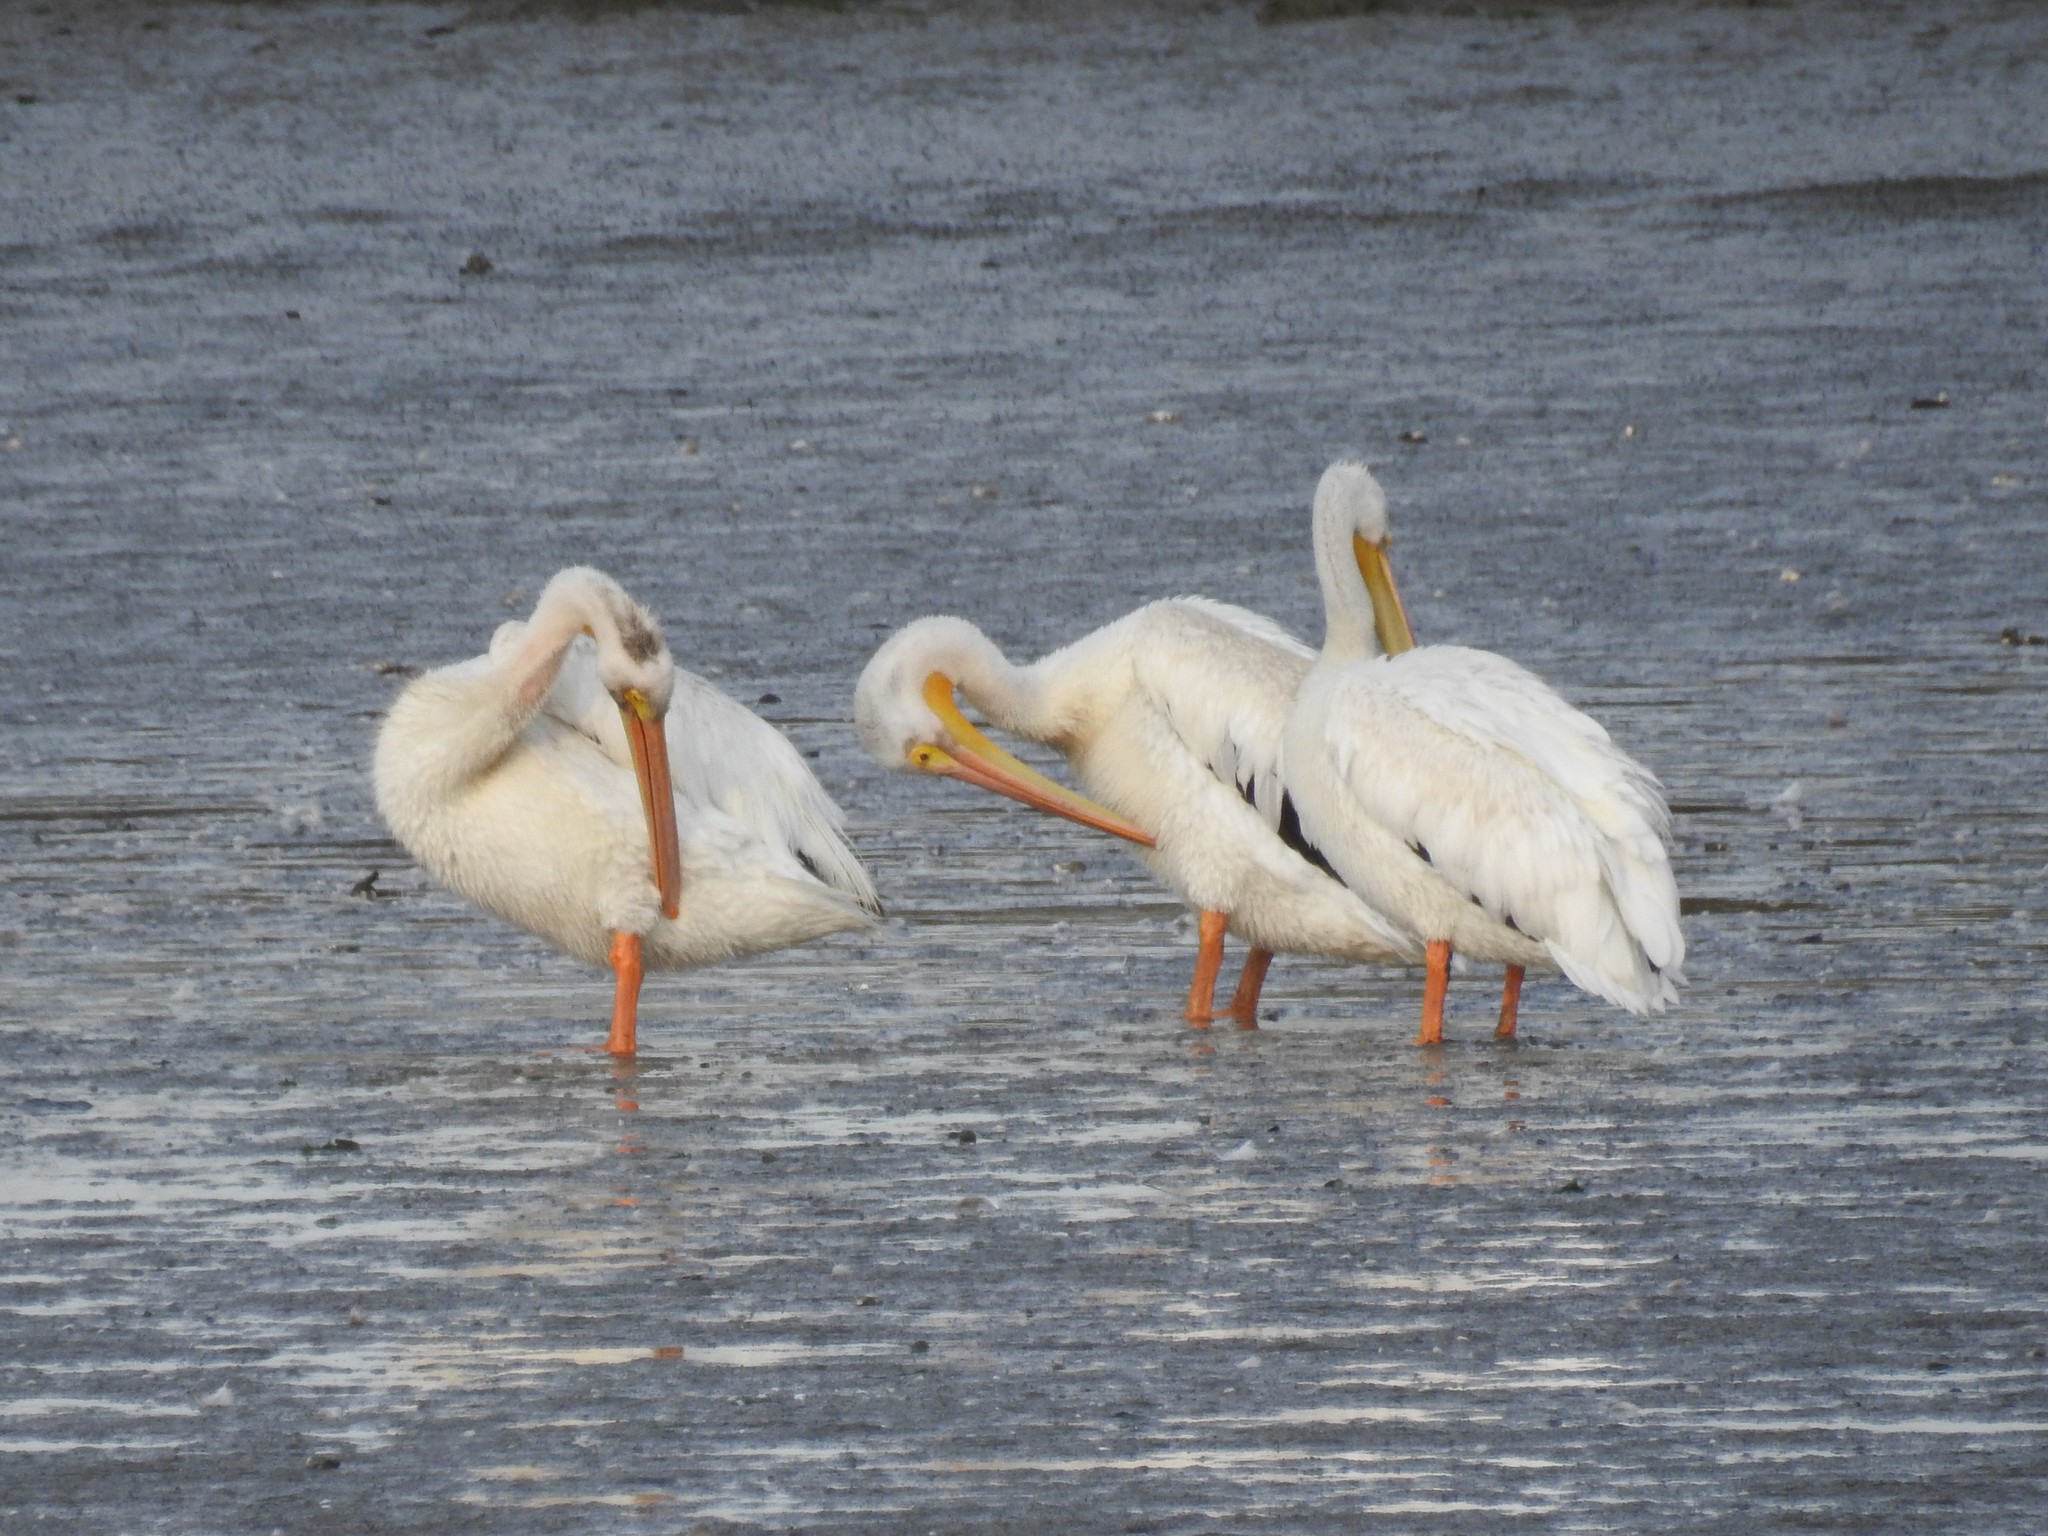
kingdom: Animalia
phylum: Chordata
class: Aves
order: Pelecaniformes
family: Pelecanidae
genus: Pelecanus
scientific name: Pelecanus erythrorhynchos
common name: American white pelican
